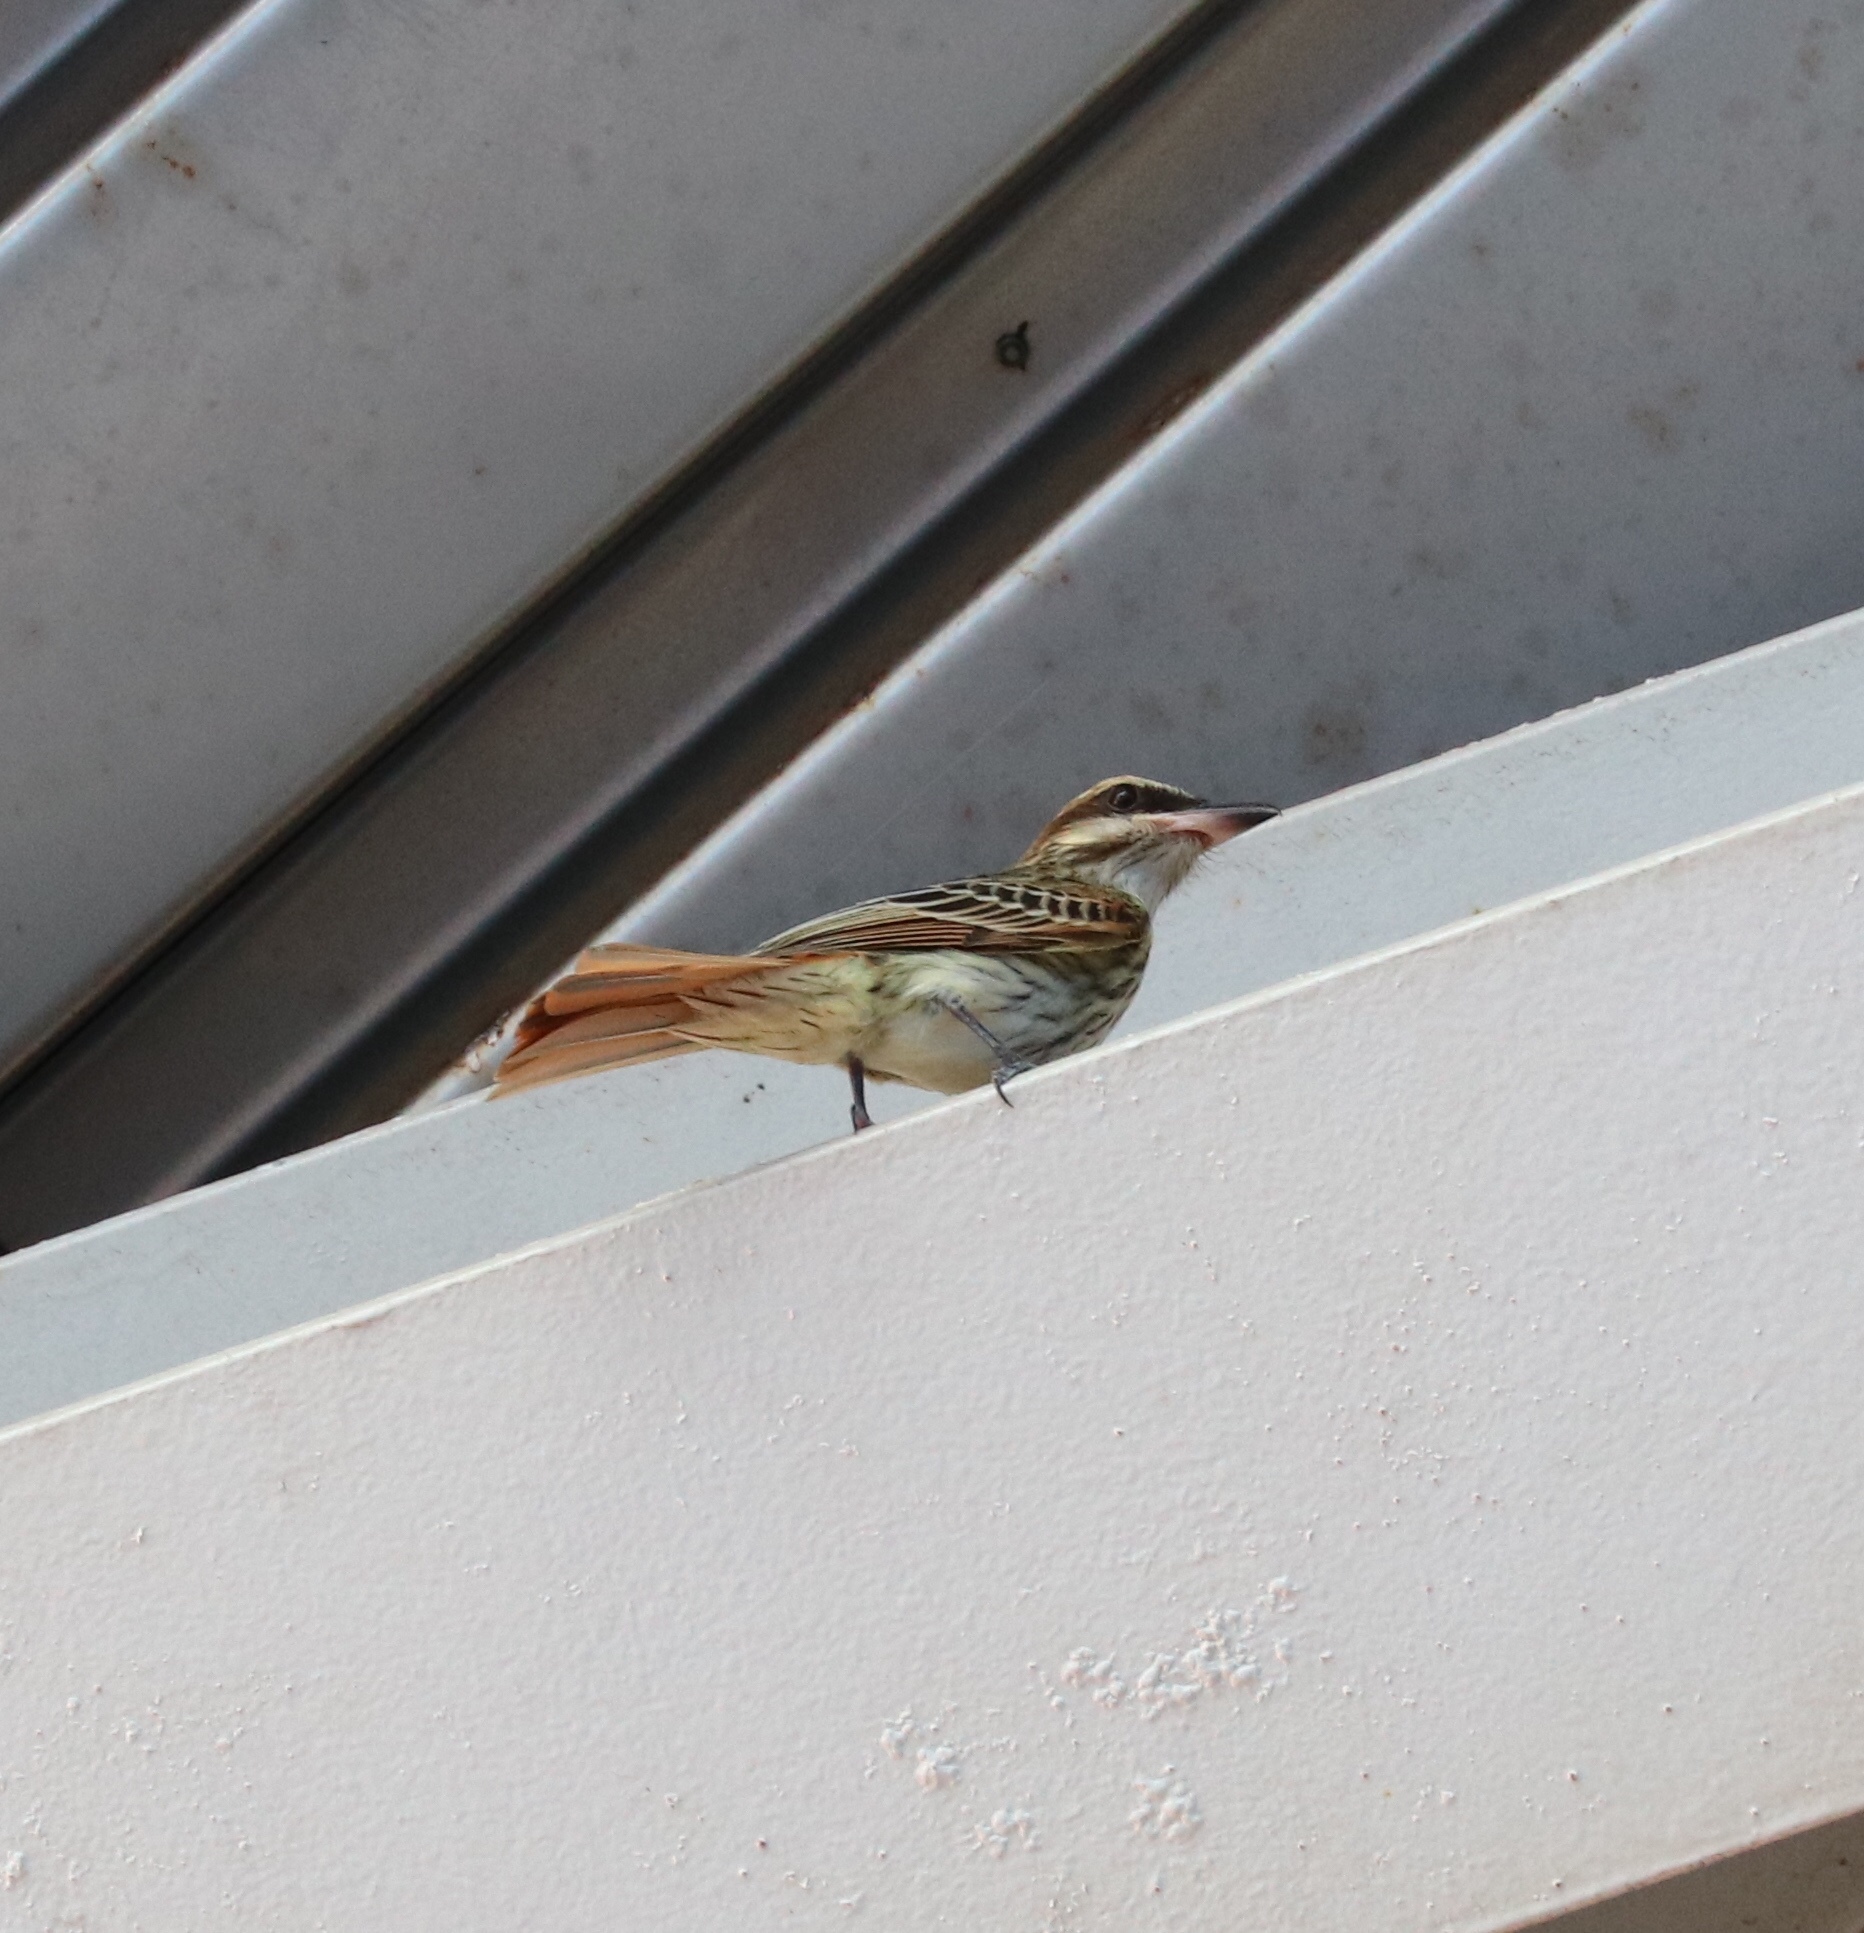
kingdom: Animalia
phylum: Chordata
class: Aves
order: Passeriformes
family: Tyrannidae
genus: Myiodynastes
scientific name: Myiodynastes maculatus
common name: Streaked flycatcher
